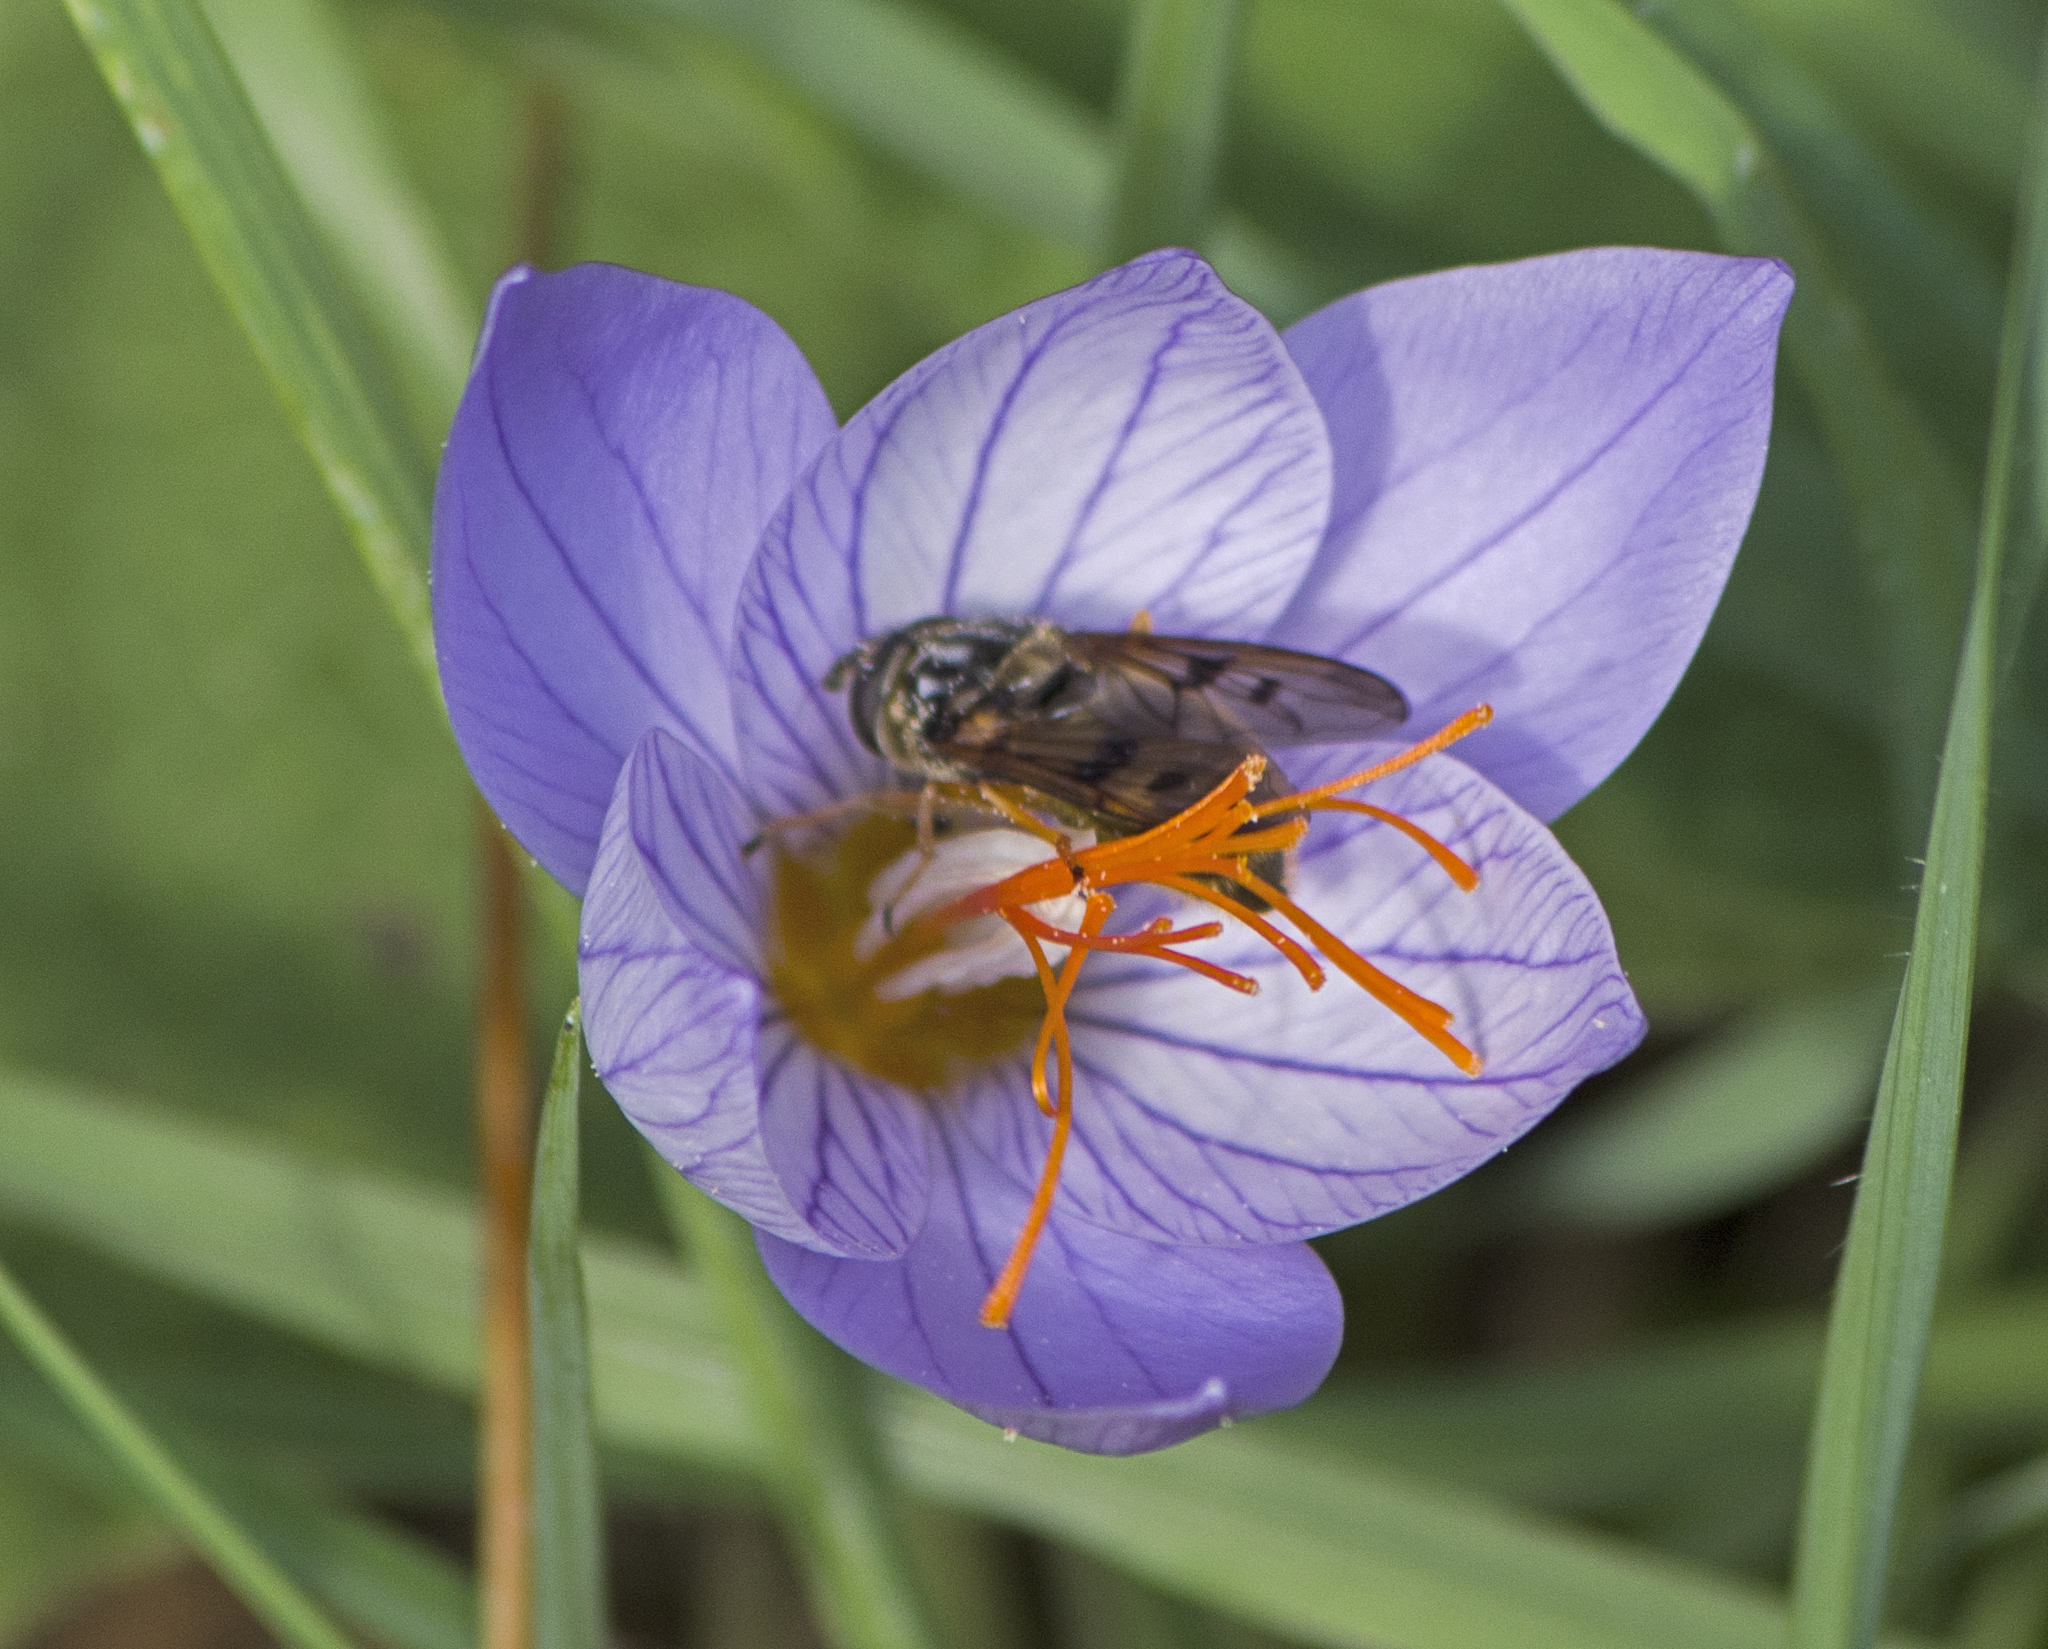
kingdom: Plantae
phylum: Tracheophyta
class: Liliopsida
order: Asparagales
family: Iridaceae
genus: Crocus
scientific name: Crocus ibrahimii
